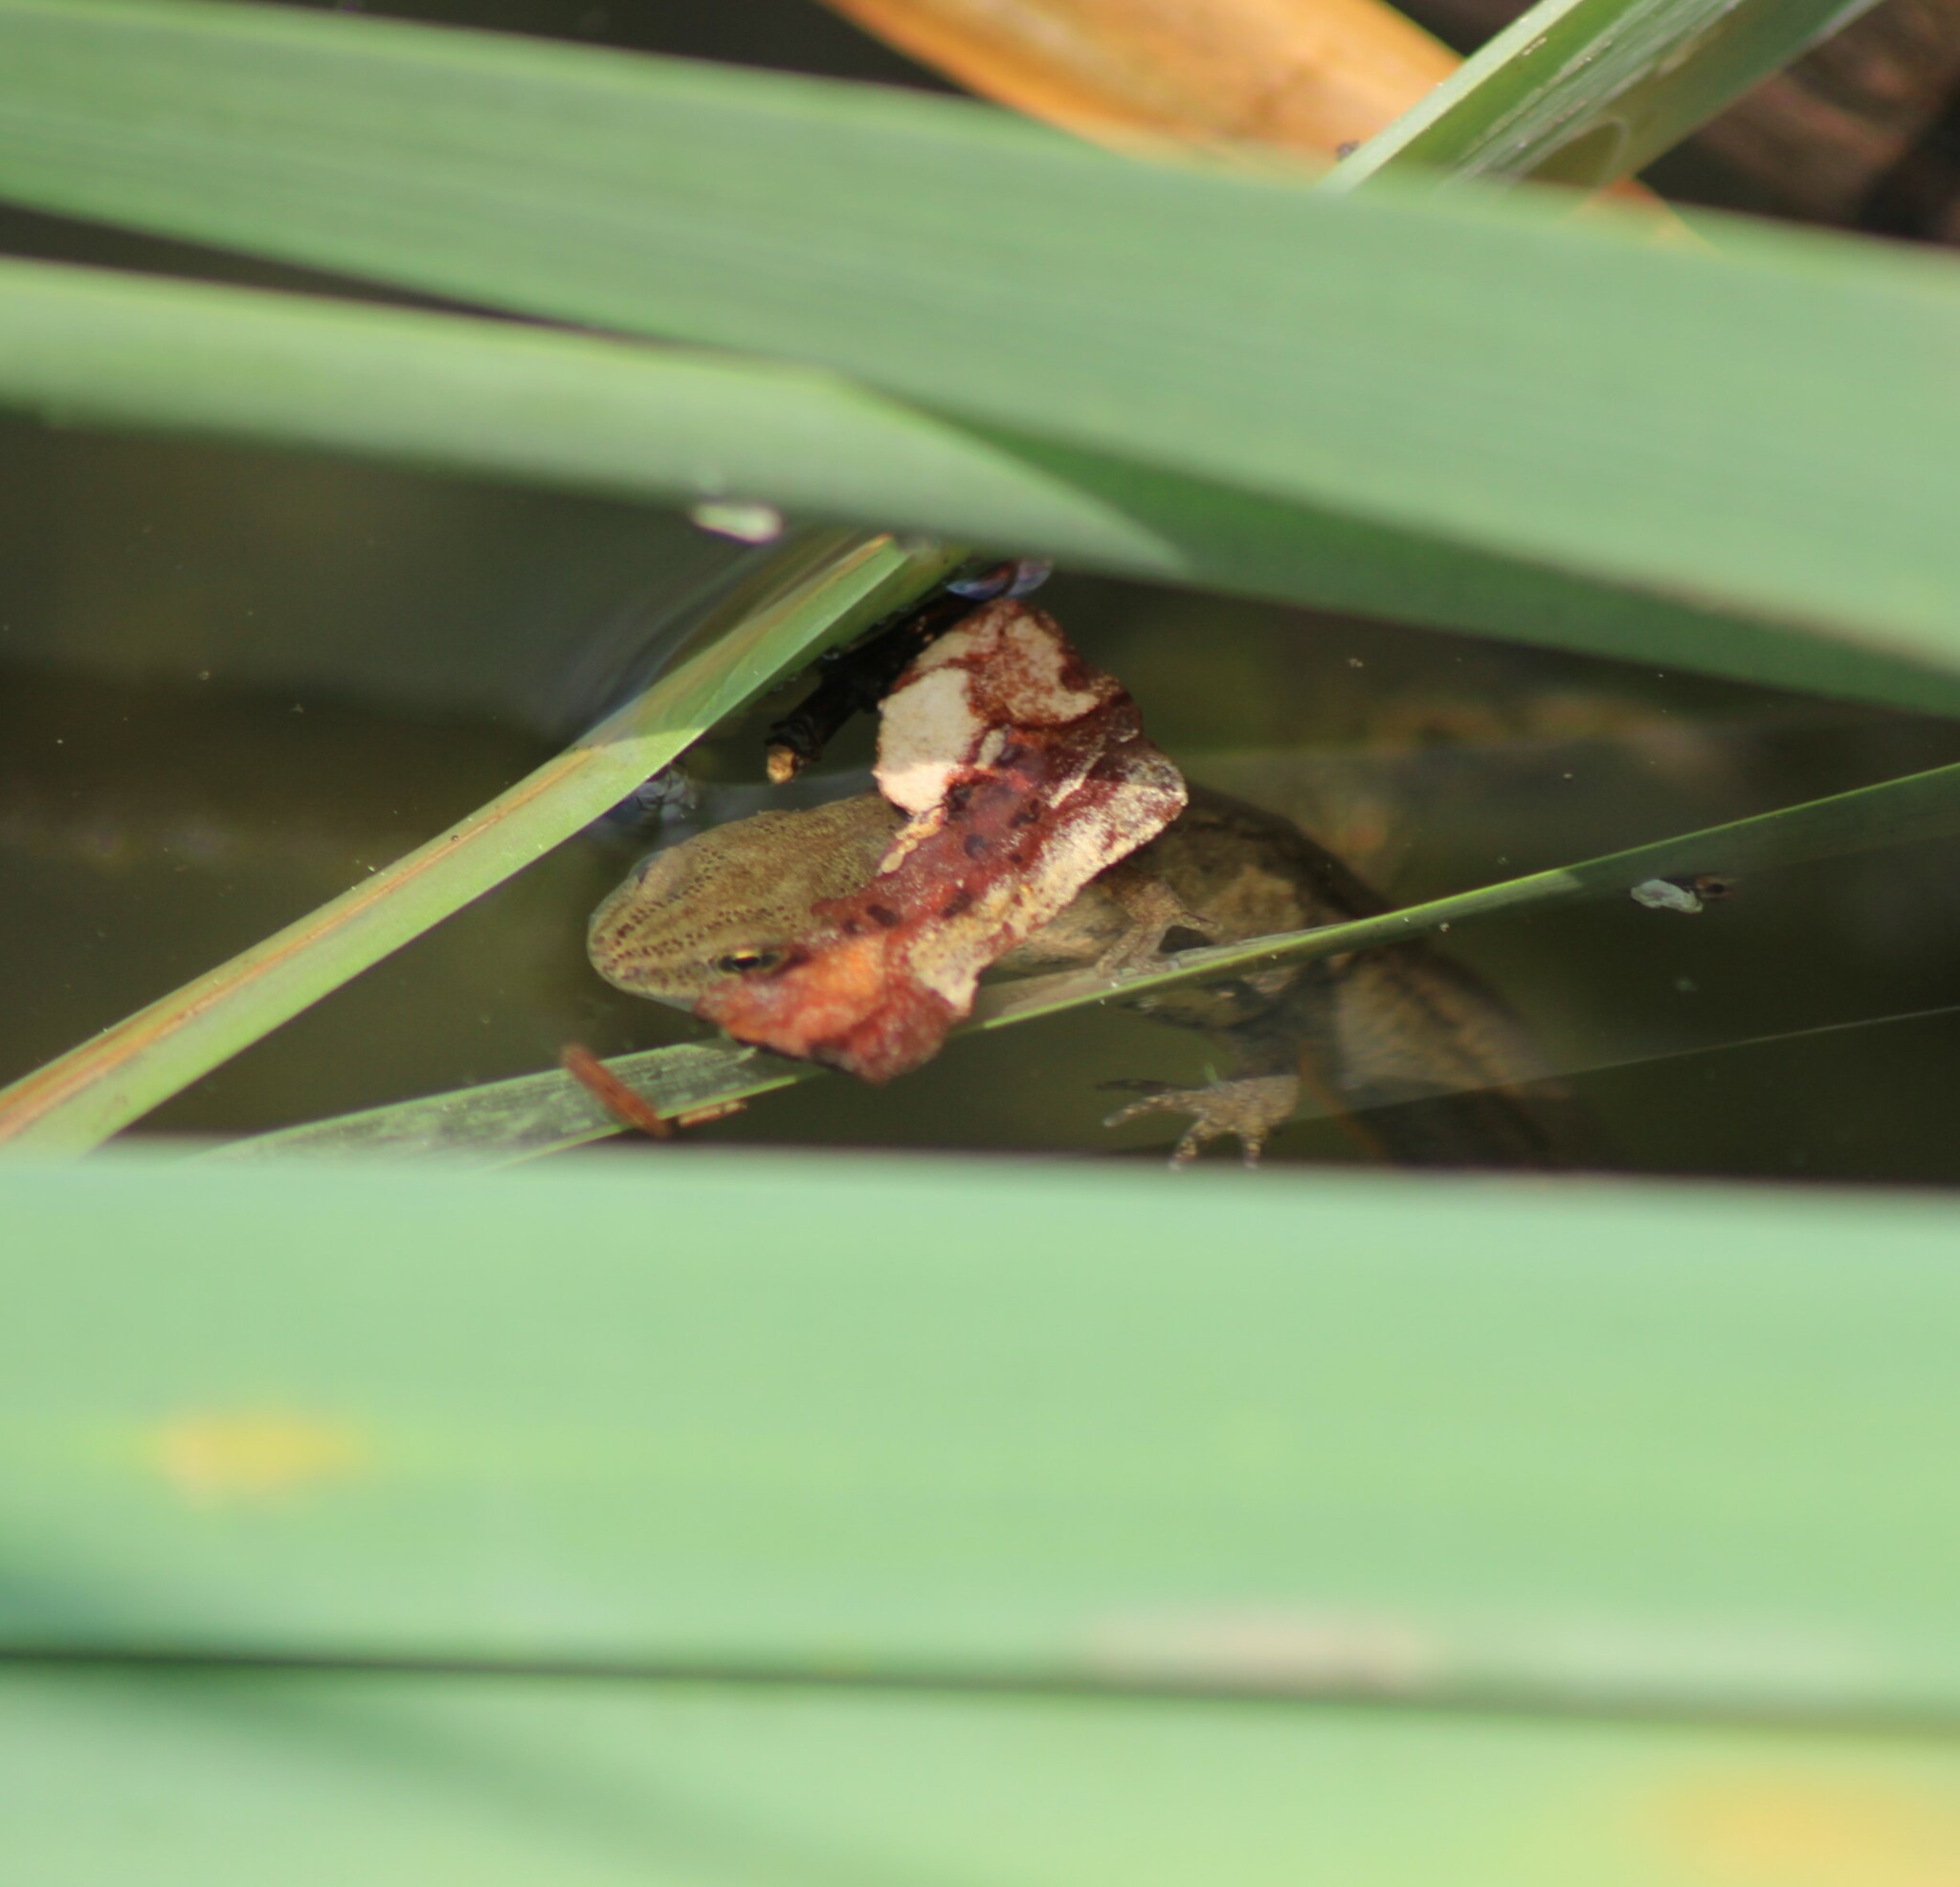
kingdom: Animalia
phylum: Chordata
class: Amphibia
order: Caudata
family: Salamandridae
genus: Lissotriton
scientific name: Lissotriton vulgaris
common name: Smooth newt
